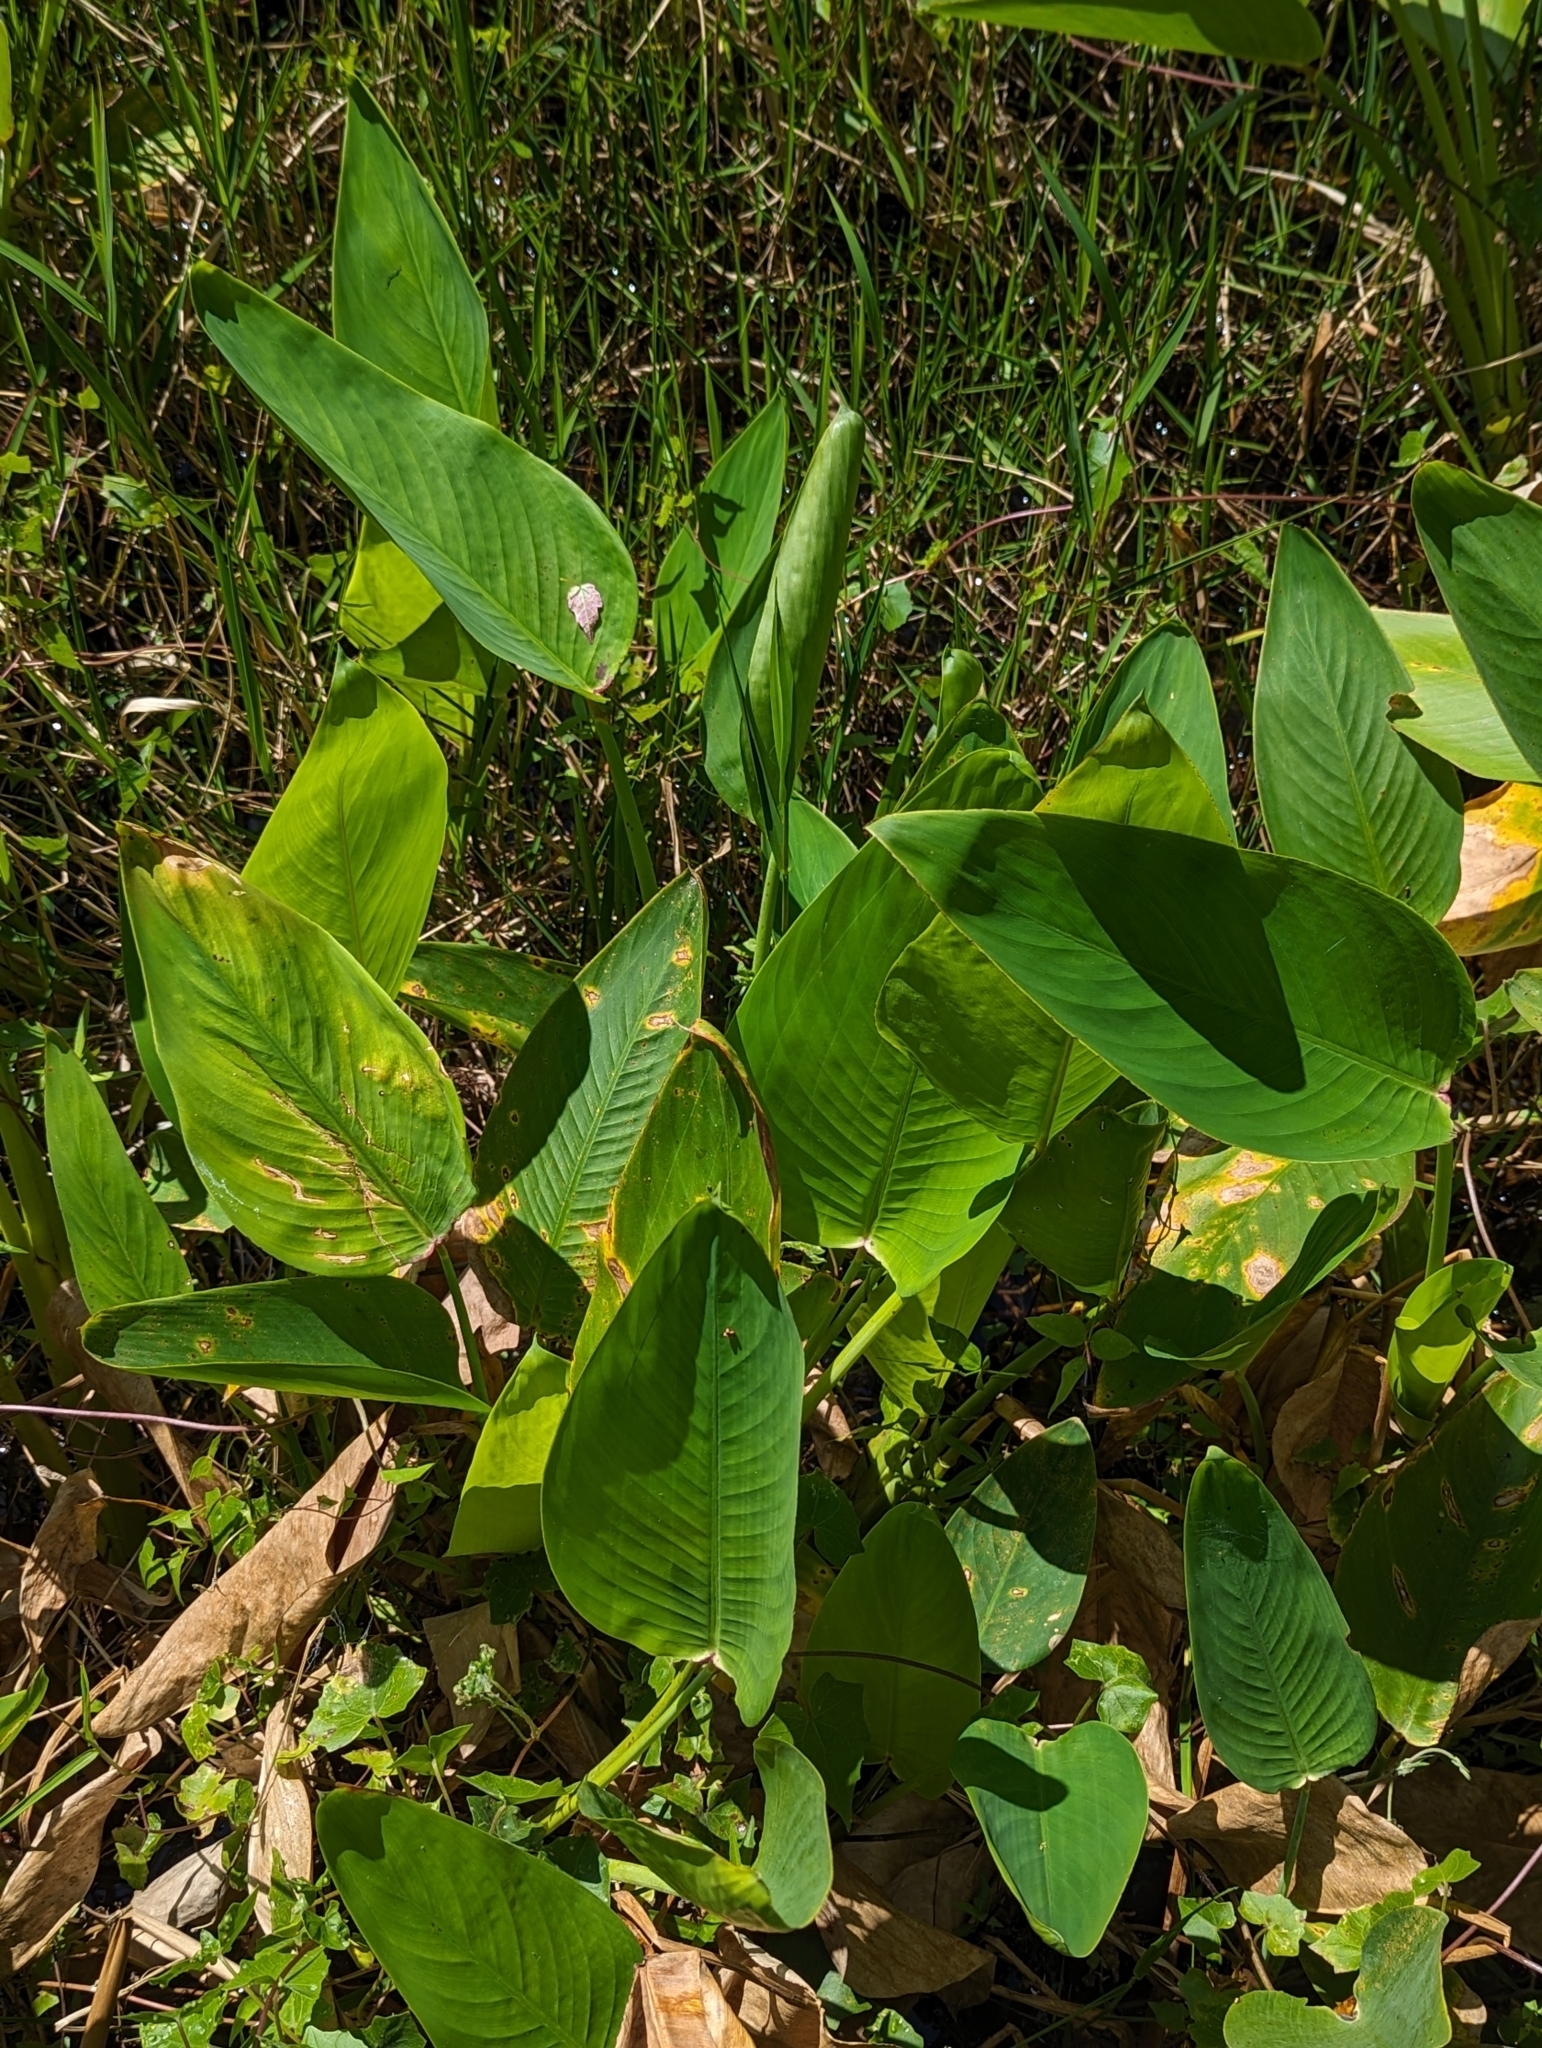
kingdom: Plantae
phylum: Tracheophyta
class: Liliopsida
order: Zingiberales
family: Marantaceae
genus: Thalia
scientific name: Thalia geniculata
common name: Arrowroot
